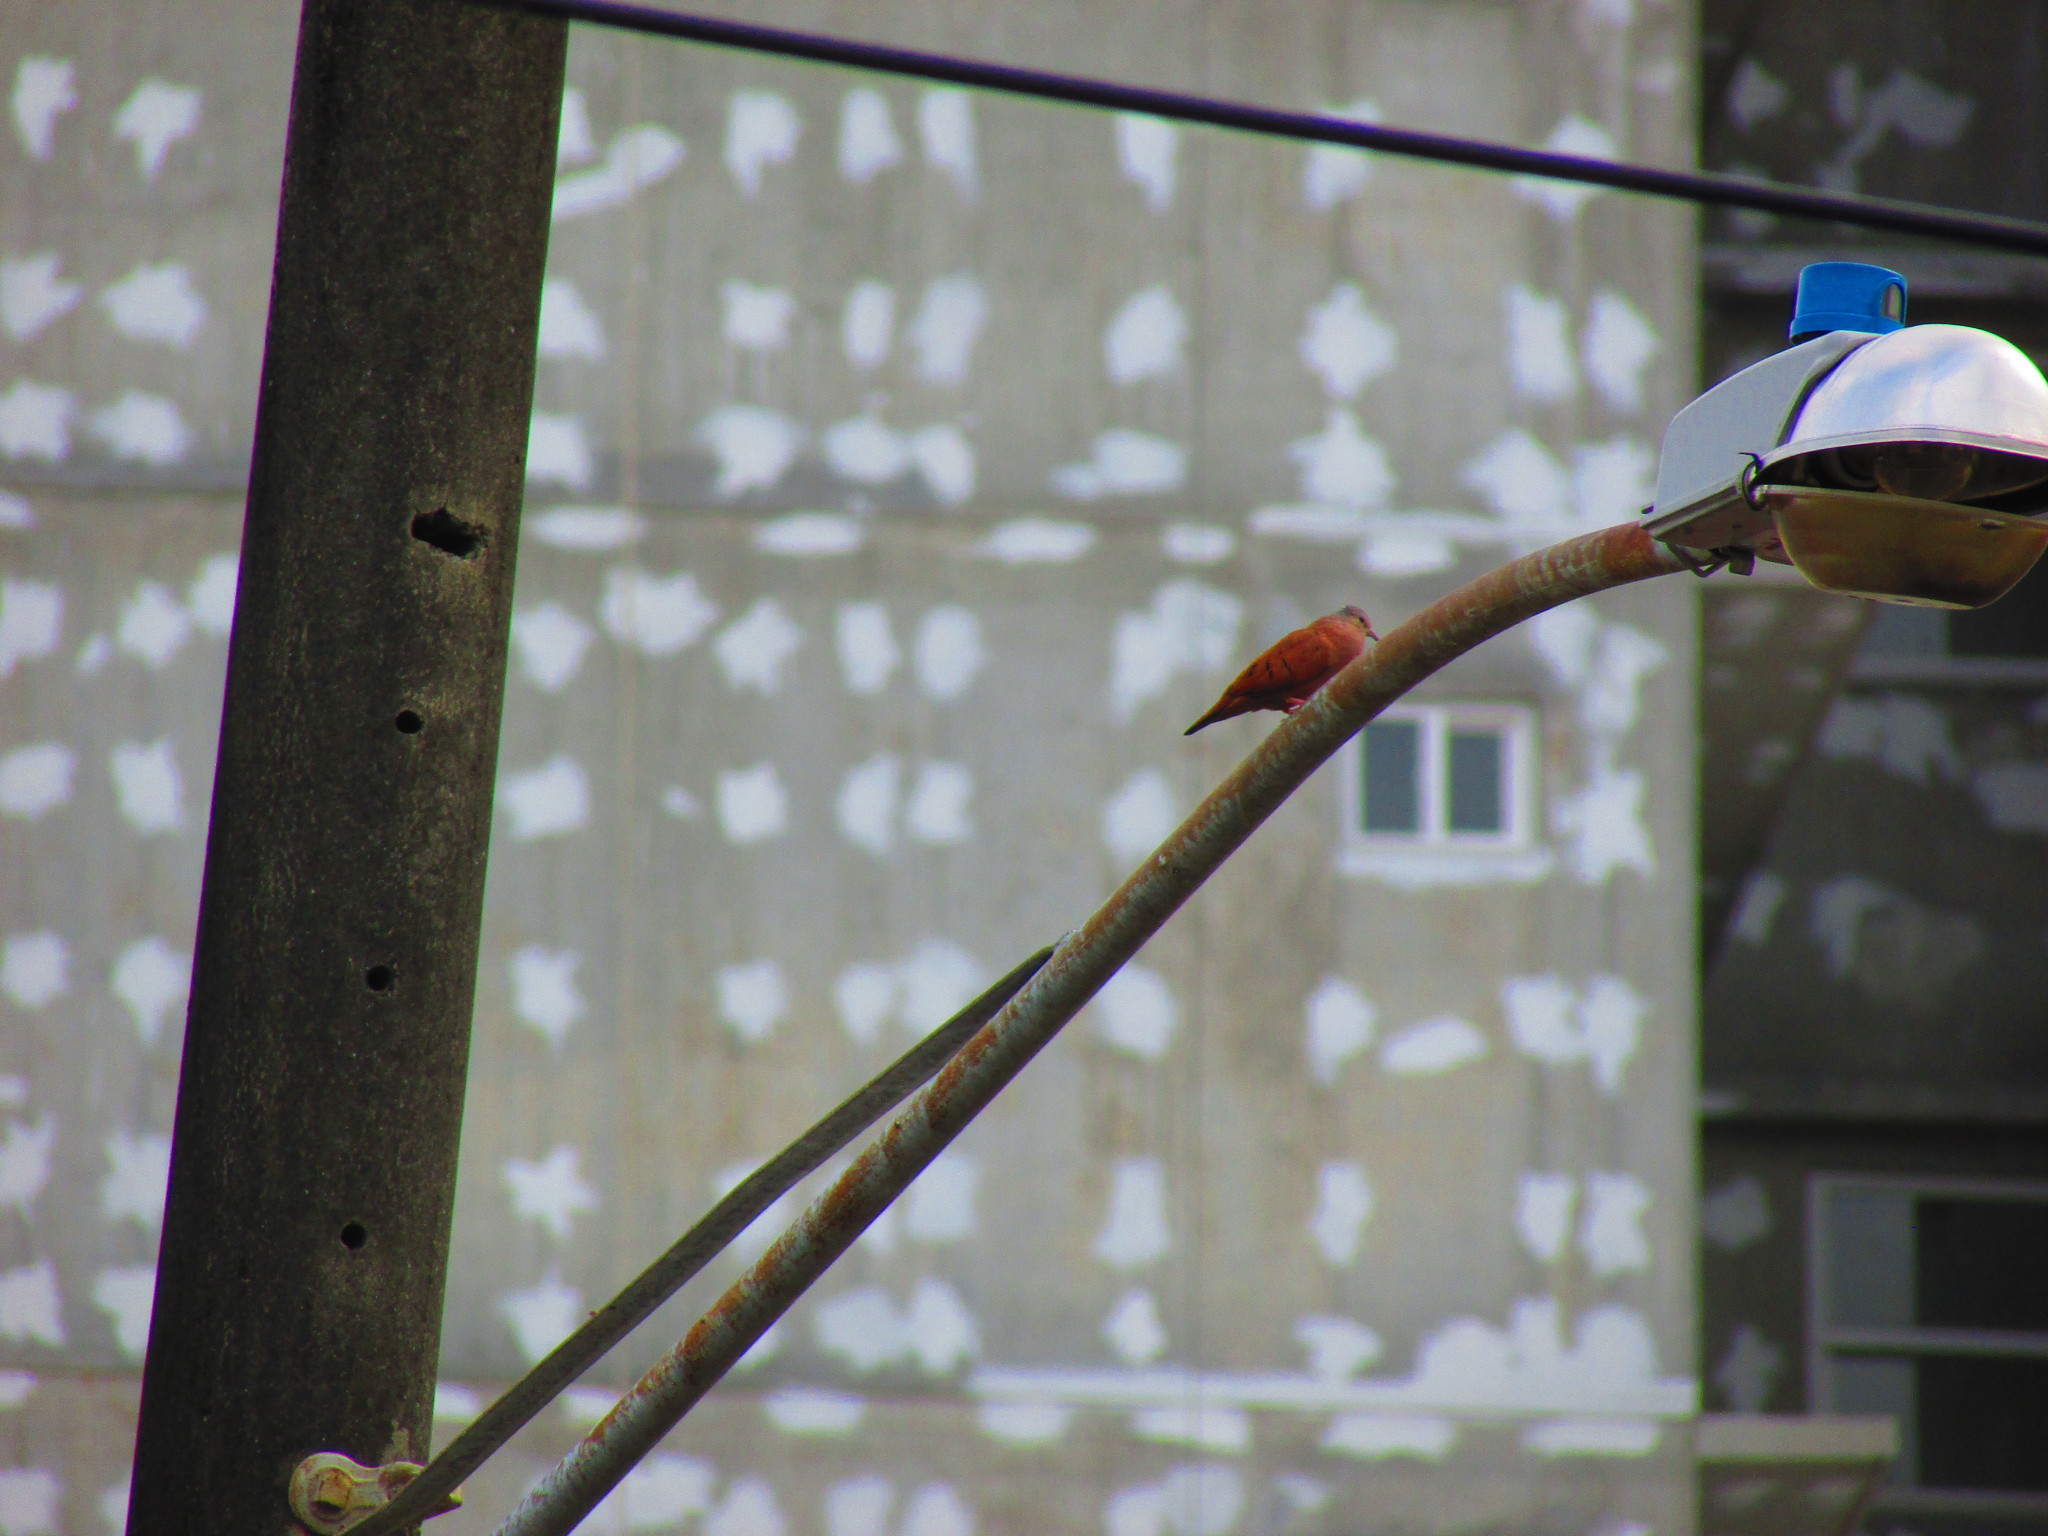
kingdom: Animalia
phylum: Chordata
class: Aves
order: Columbiformes
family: Columbidae
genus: Columbina
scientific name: Columbina talpacoti
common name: Ruddy ground dove
